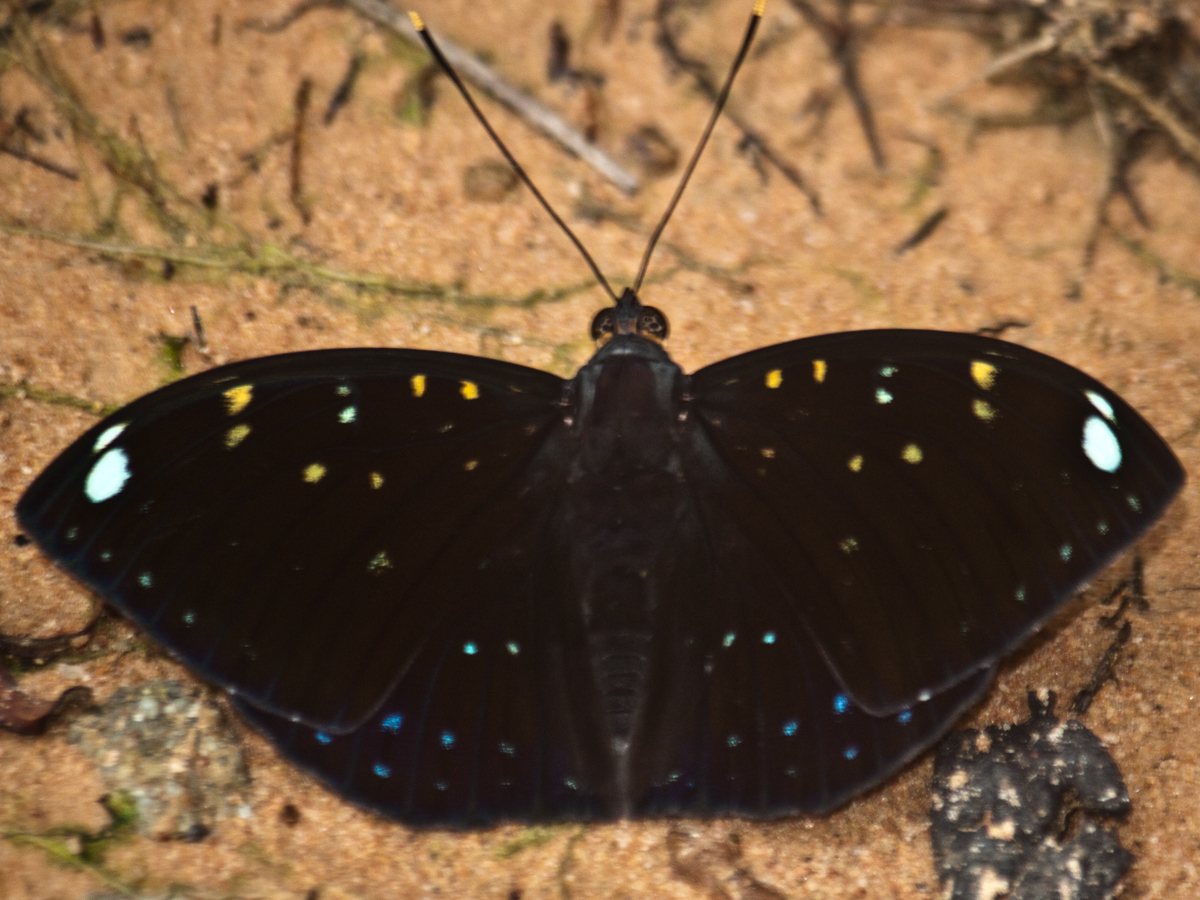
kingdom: Animalia
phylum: Arthropoda
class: Insecta
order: Lepidoptera
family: Nymphalidae
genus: Lexias
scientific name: Lexias
